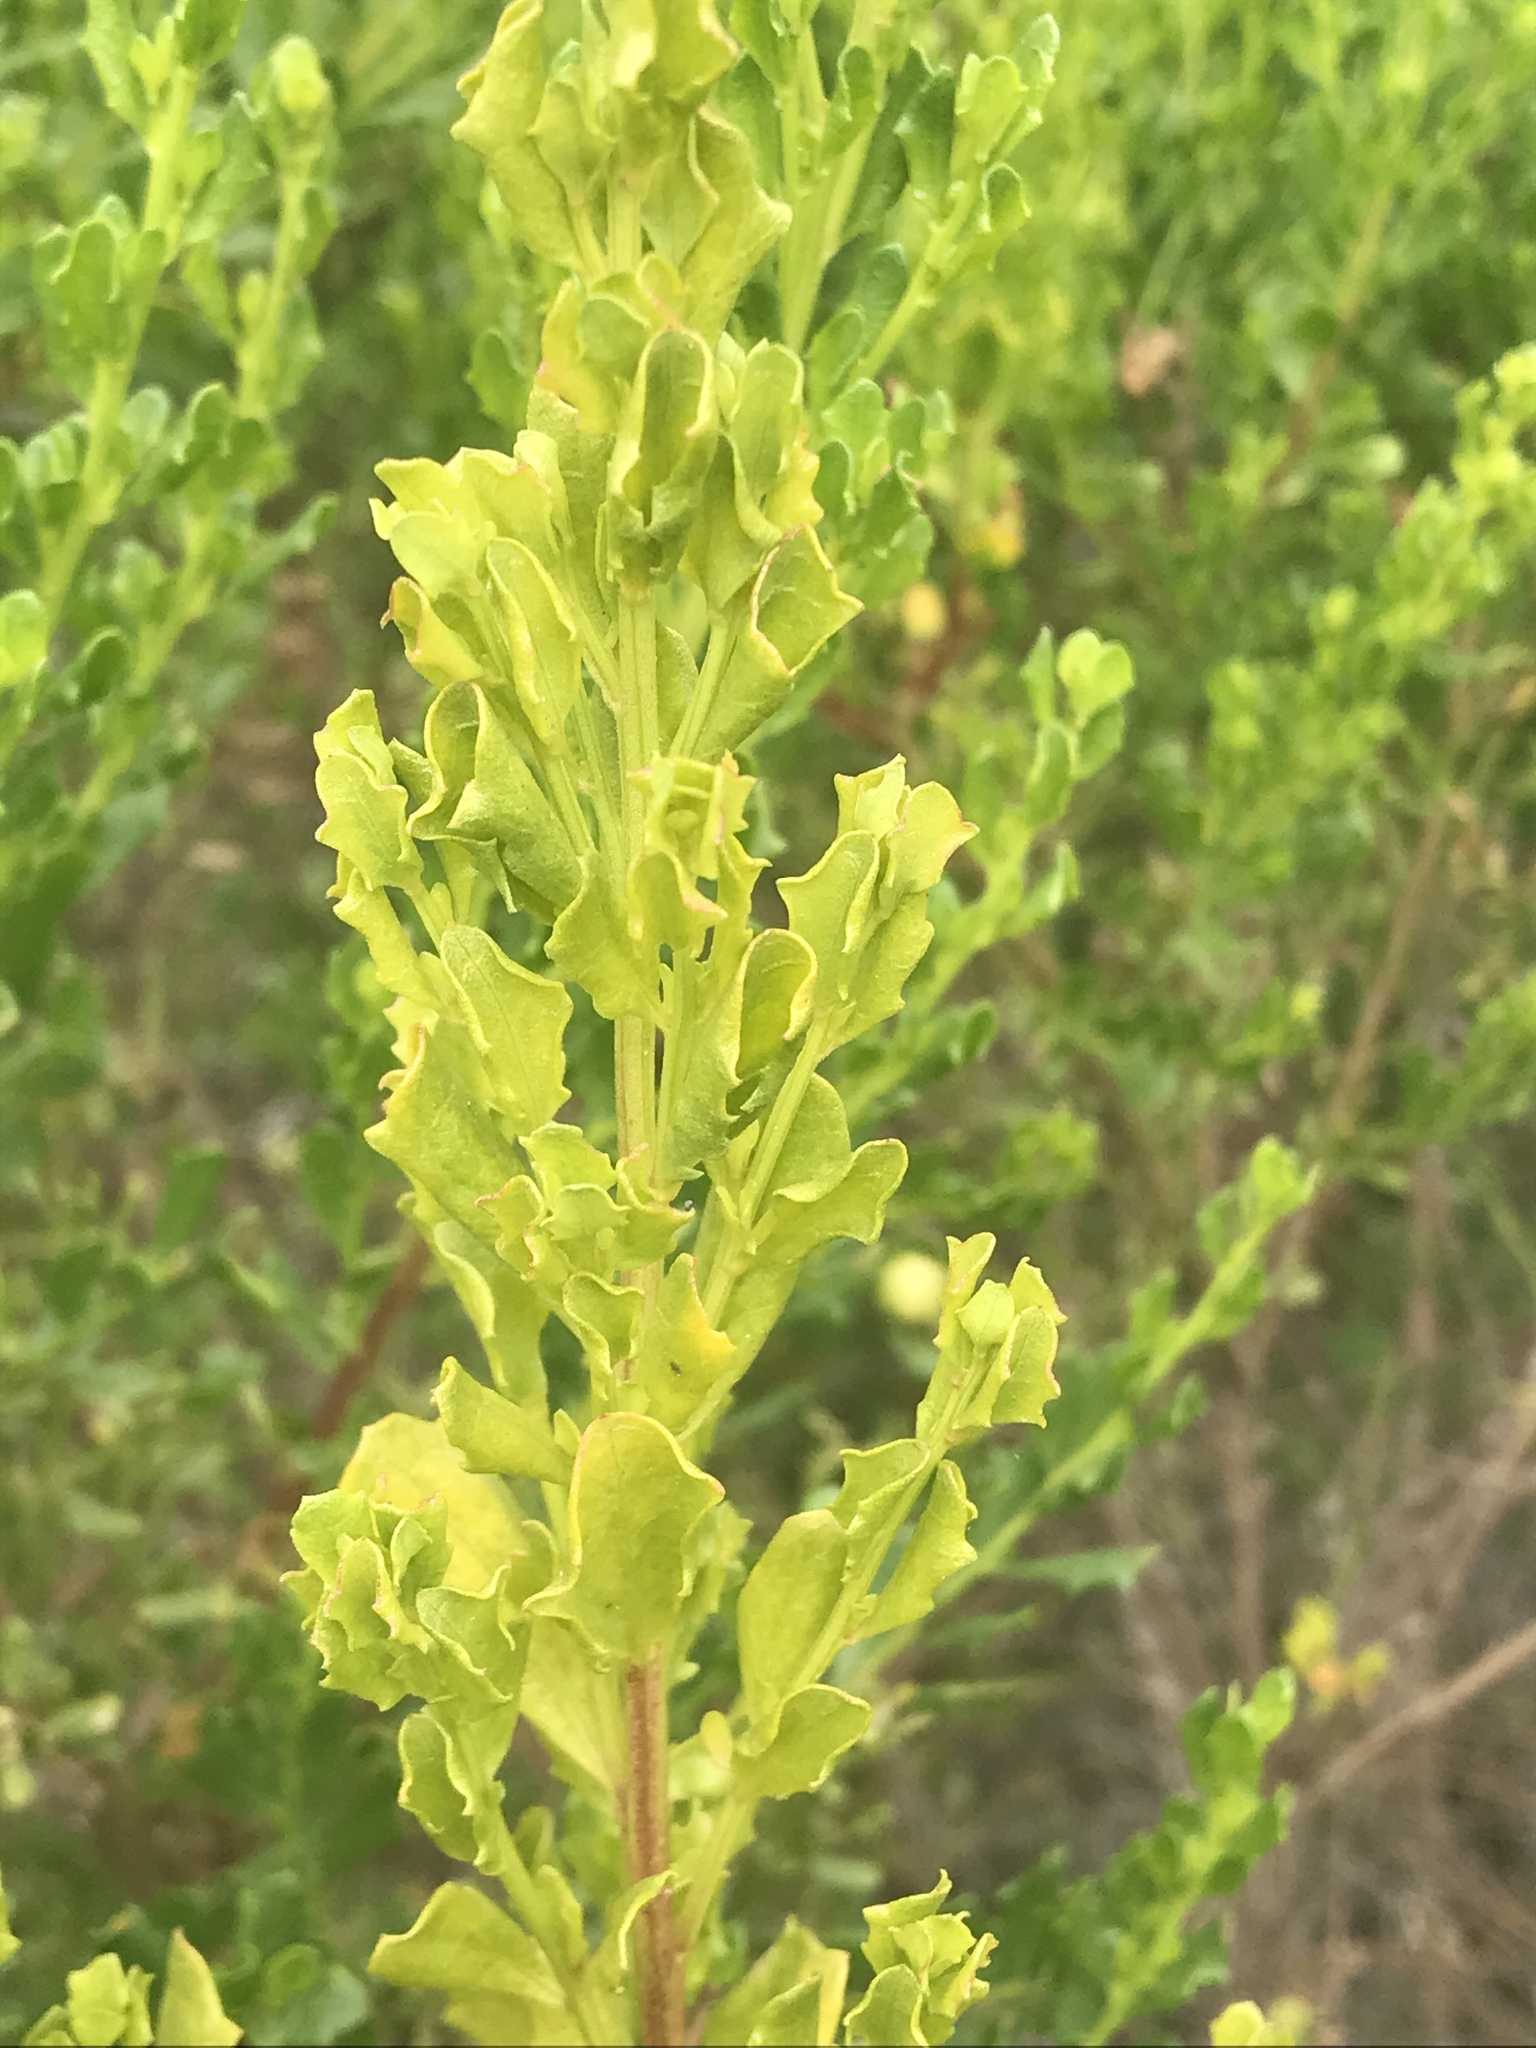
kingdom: Plantae
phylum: Tracheophyta
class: Magnoliopsida
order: Asterales
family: Asteraceae
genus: Baccharis
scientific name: Baccharis pilularis
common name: Coyotebrush
